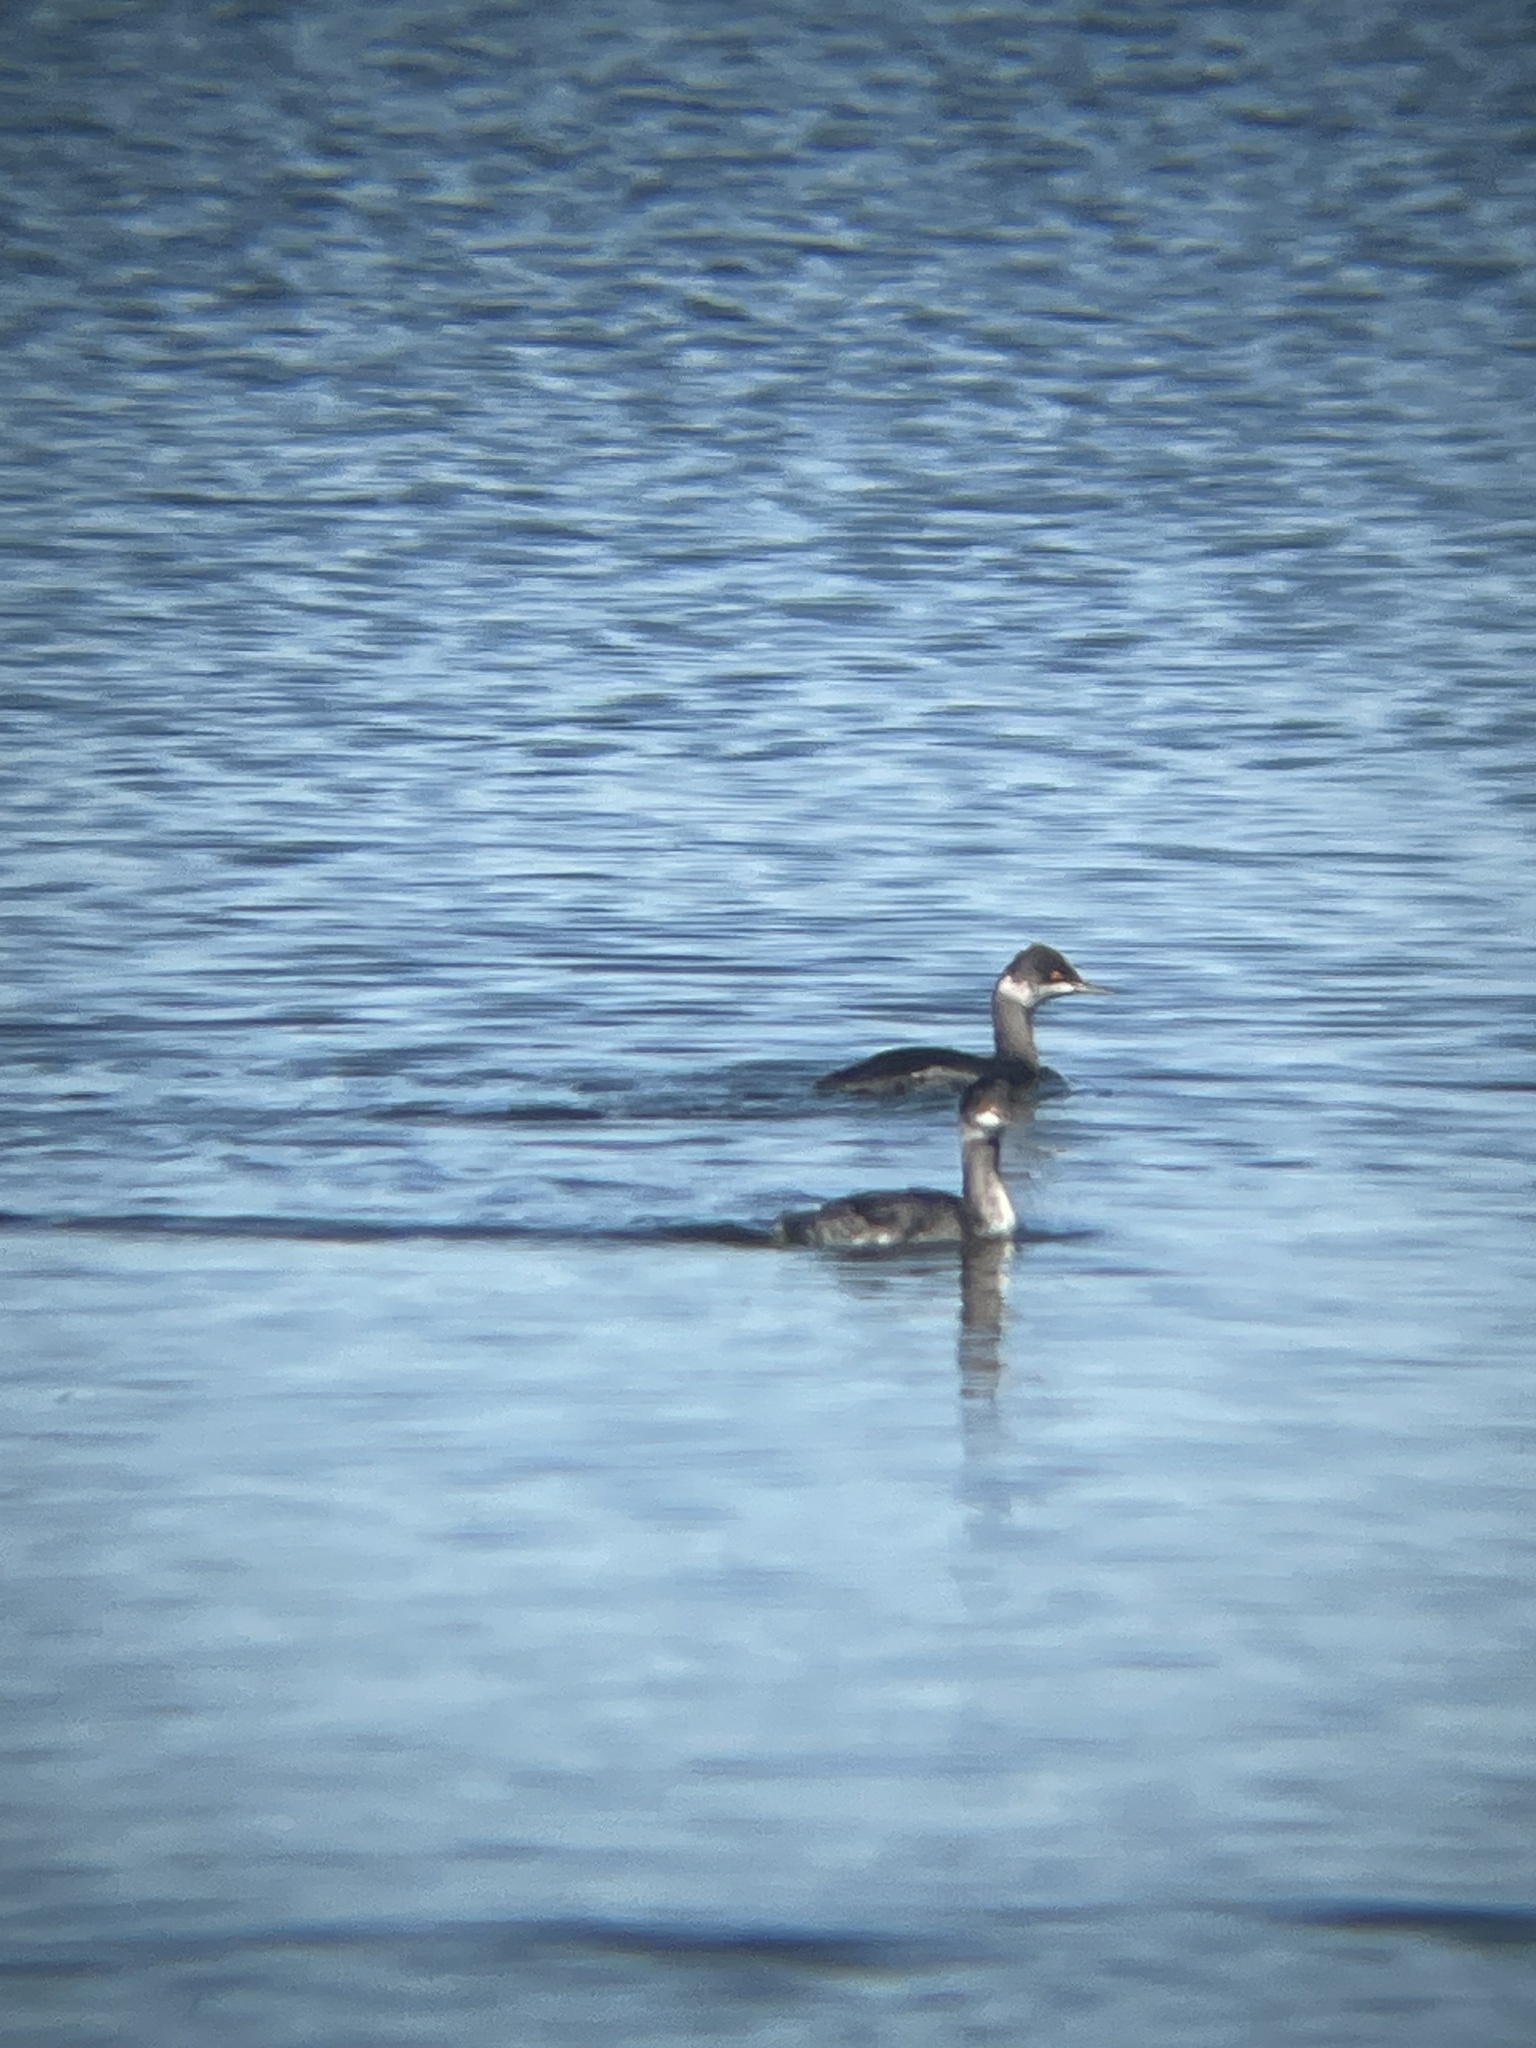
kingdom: Animalia
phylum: Chordata
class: Aves
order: Podicipediformes
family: Podicipedidae
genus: Podiceps
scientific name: Podiceps nigricollis
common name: Black-necked grebe
